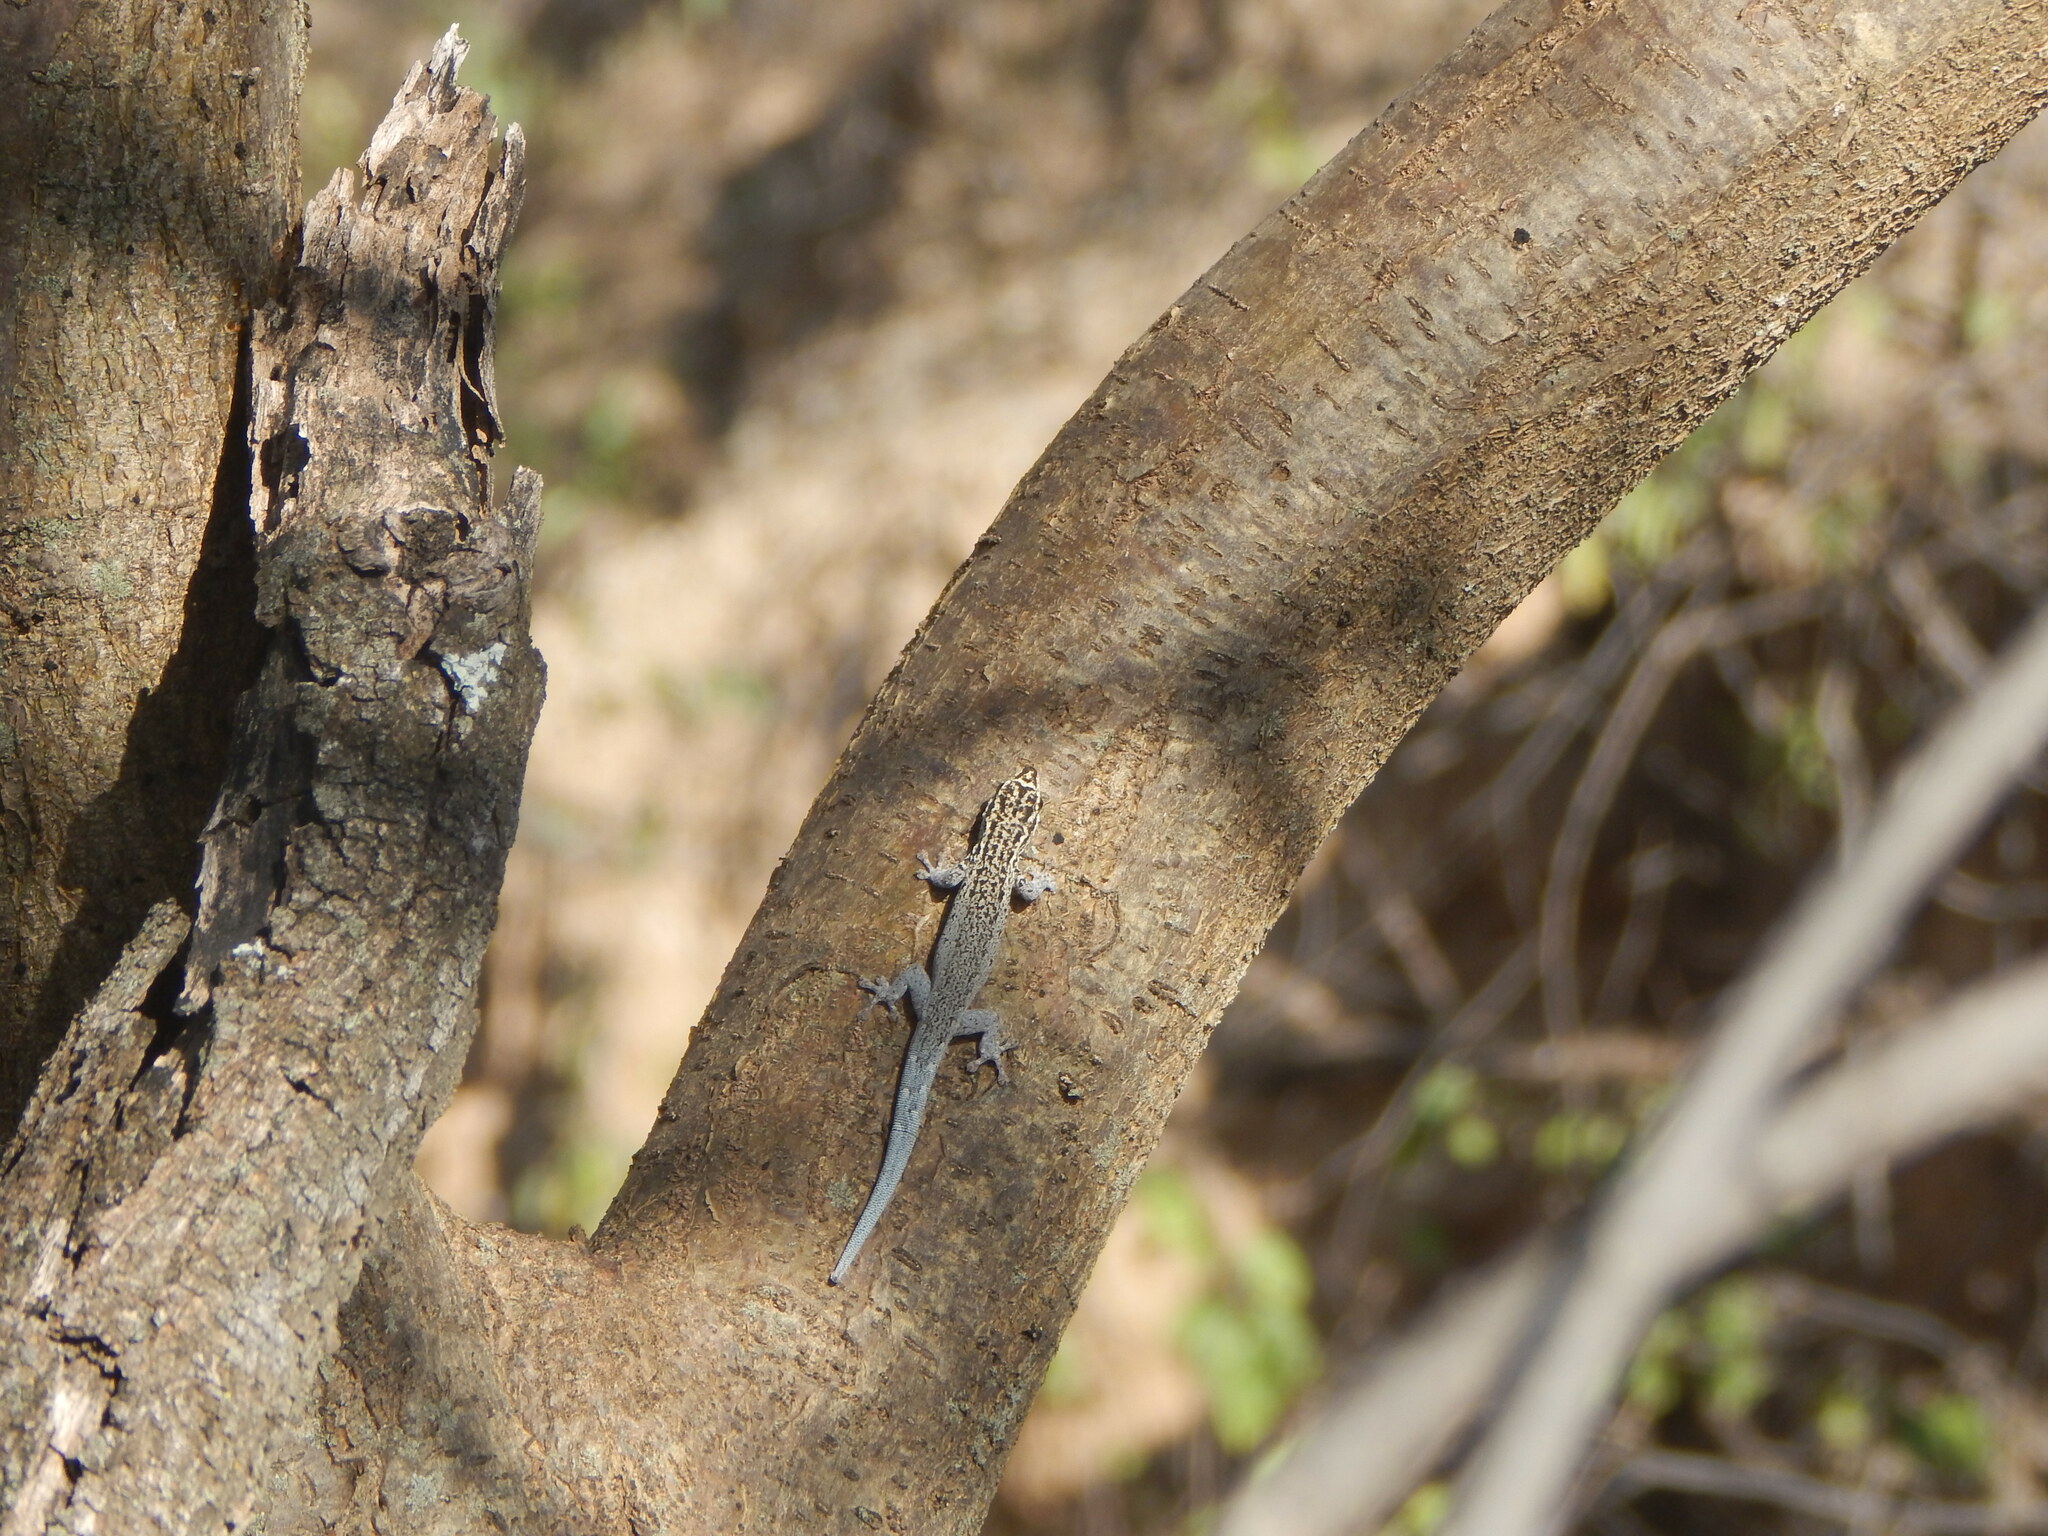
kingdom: Animalia
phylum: Chordata
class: Squamata
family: Gekkonidae
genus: Lygodactylus
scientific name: Lygodactylus picturatus
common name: Painted dwarf gecko
